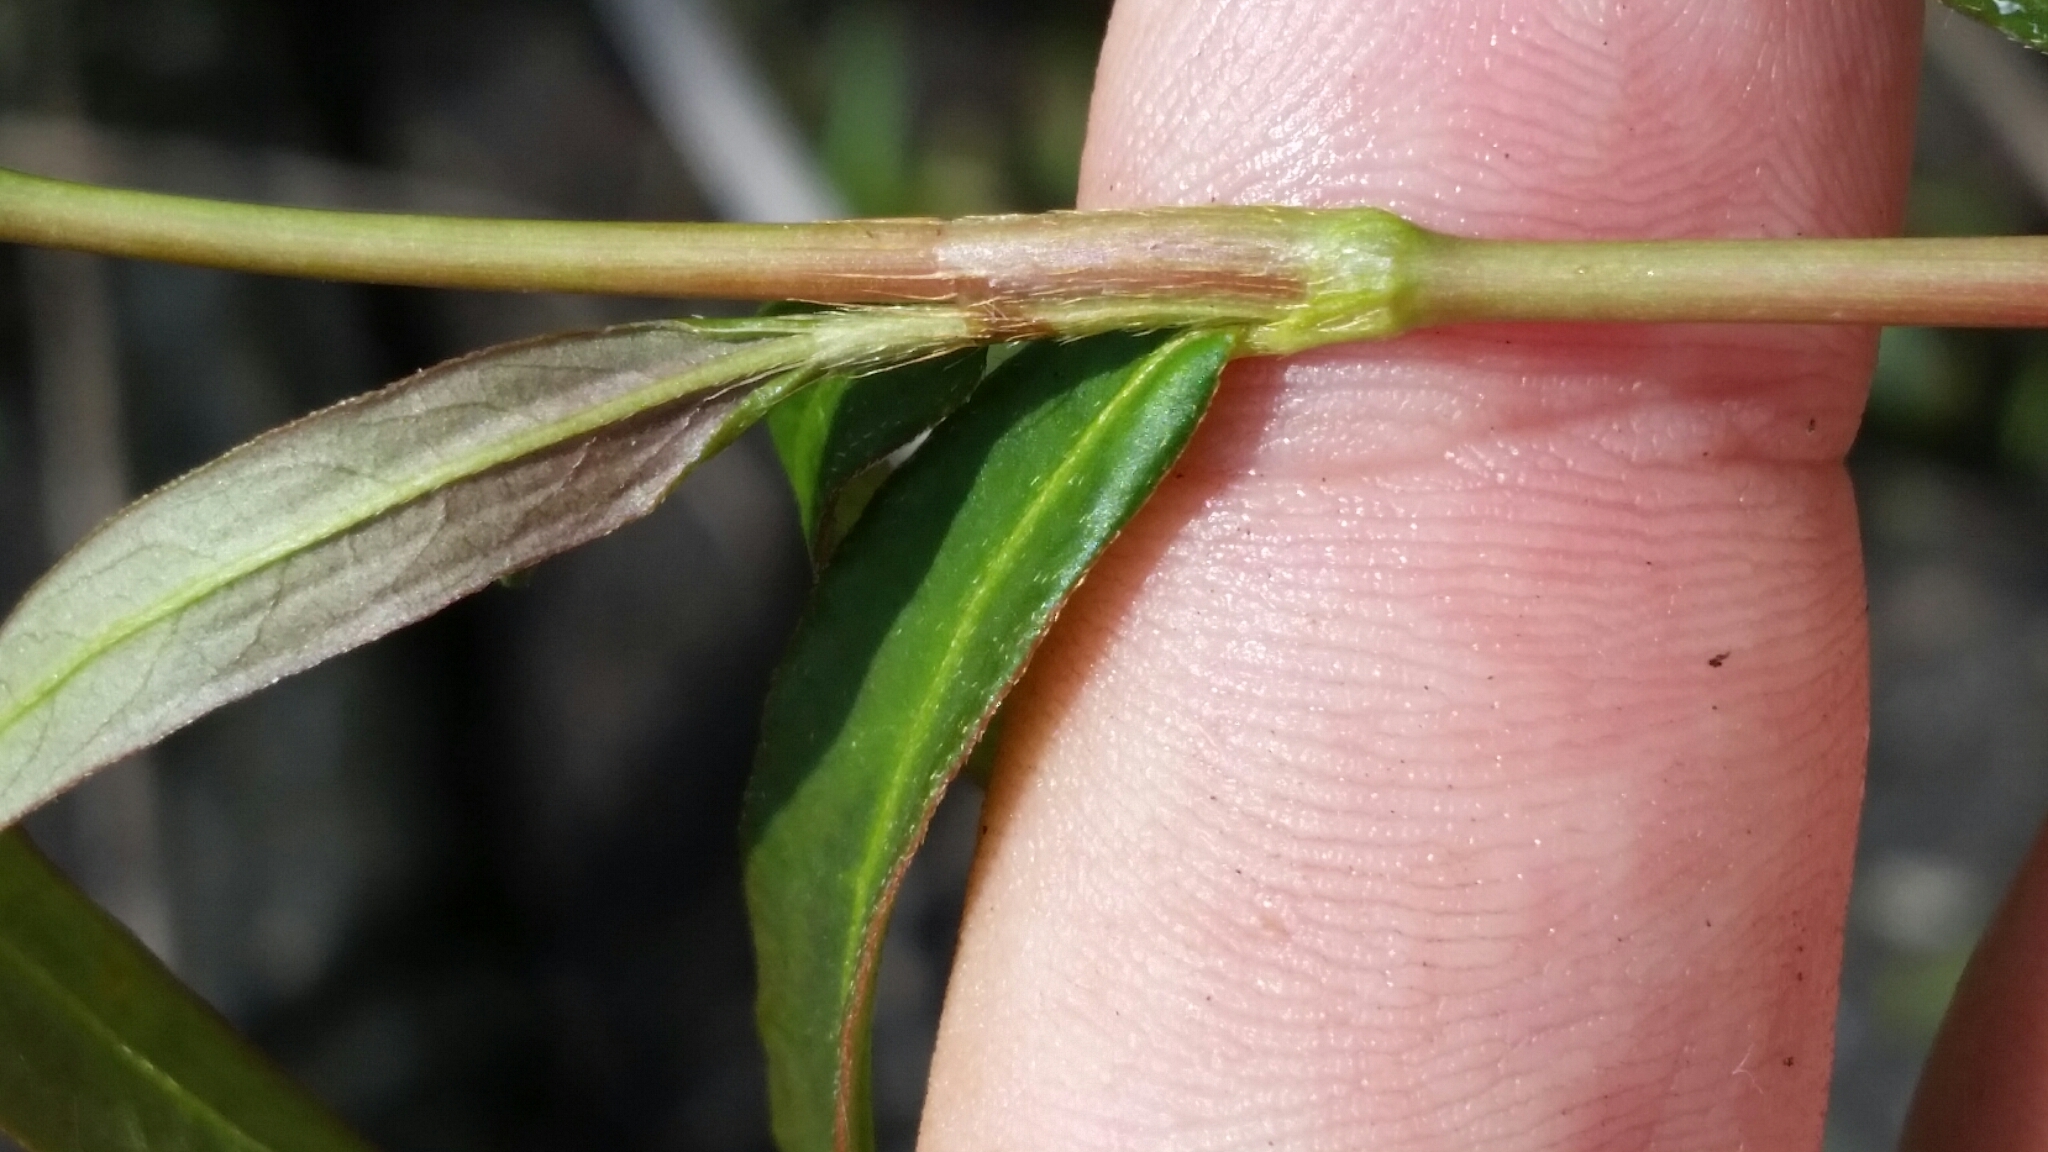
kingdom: Plantae
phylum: Tracheophyta
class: Magnoliopsida
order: Caryophyllales
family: Polygonaceae
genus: Persicaria
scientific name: Persicaria hydropiperoides
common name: Swamp smartweed
